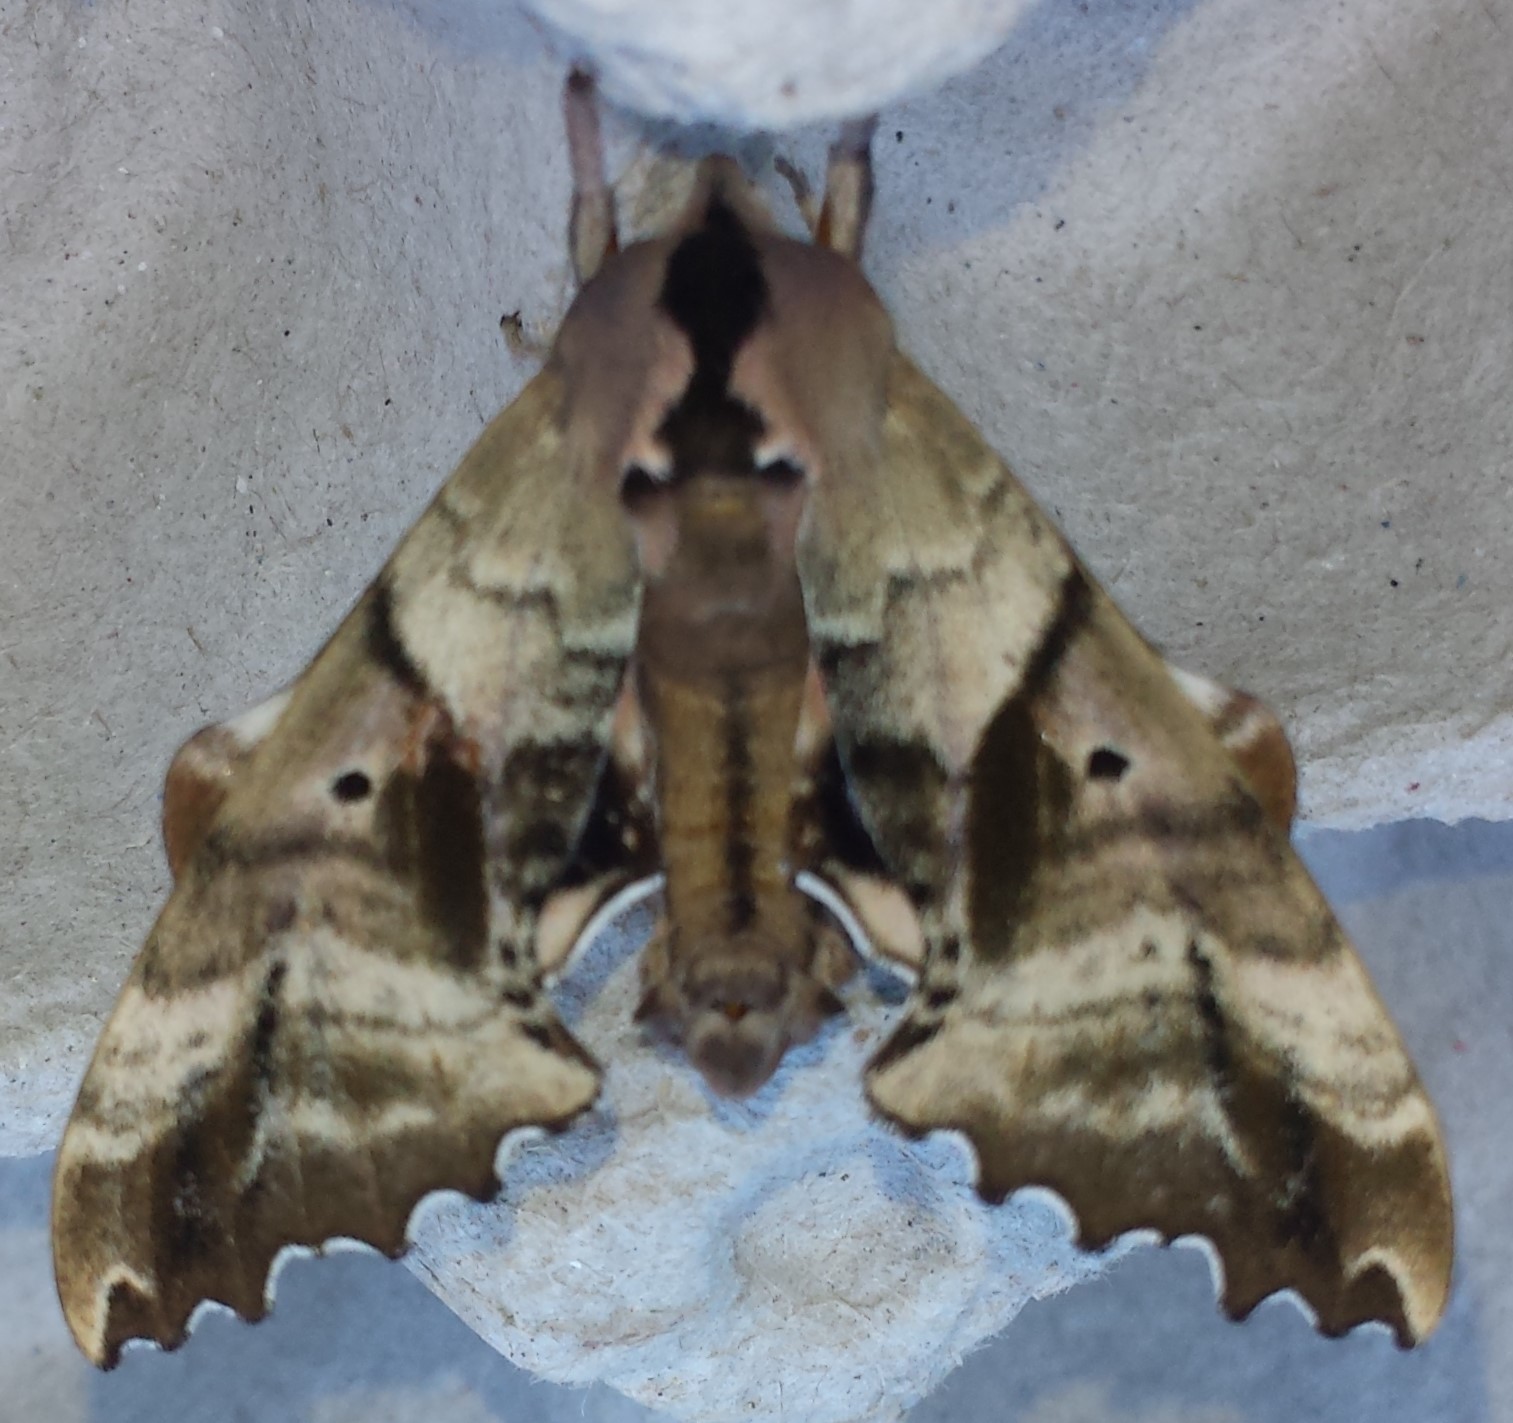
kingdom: Animalia
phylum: Arthropoda
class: Insecta
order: Lepidoptera
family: Sphingidae
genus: Paonias
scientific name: Paonias excaecata
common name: Blind-eyed sphinx
